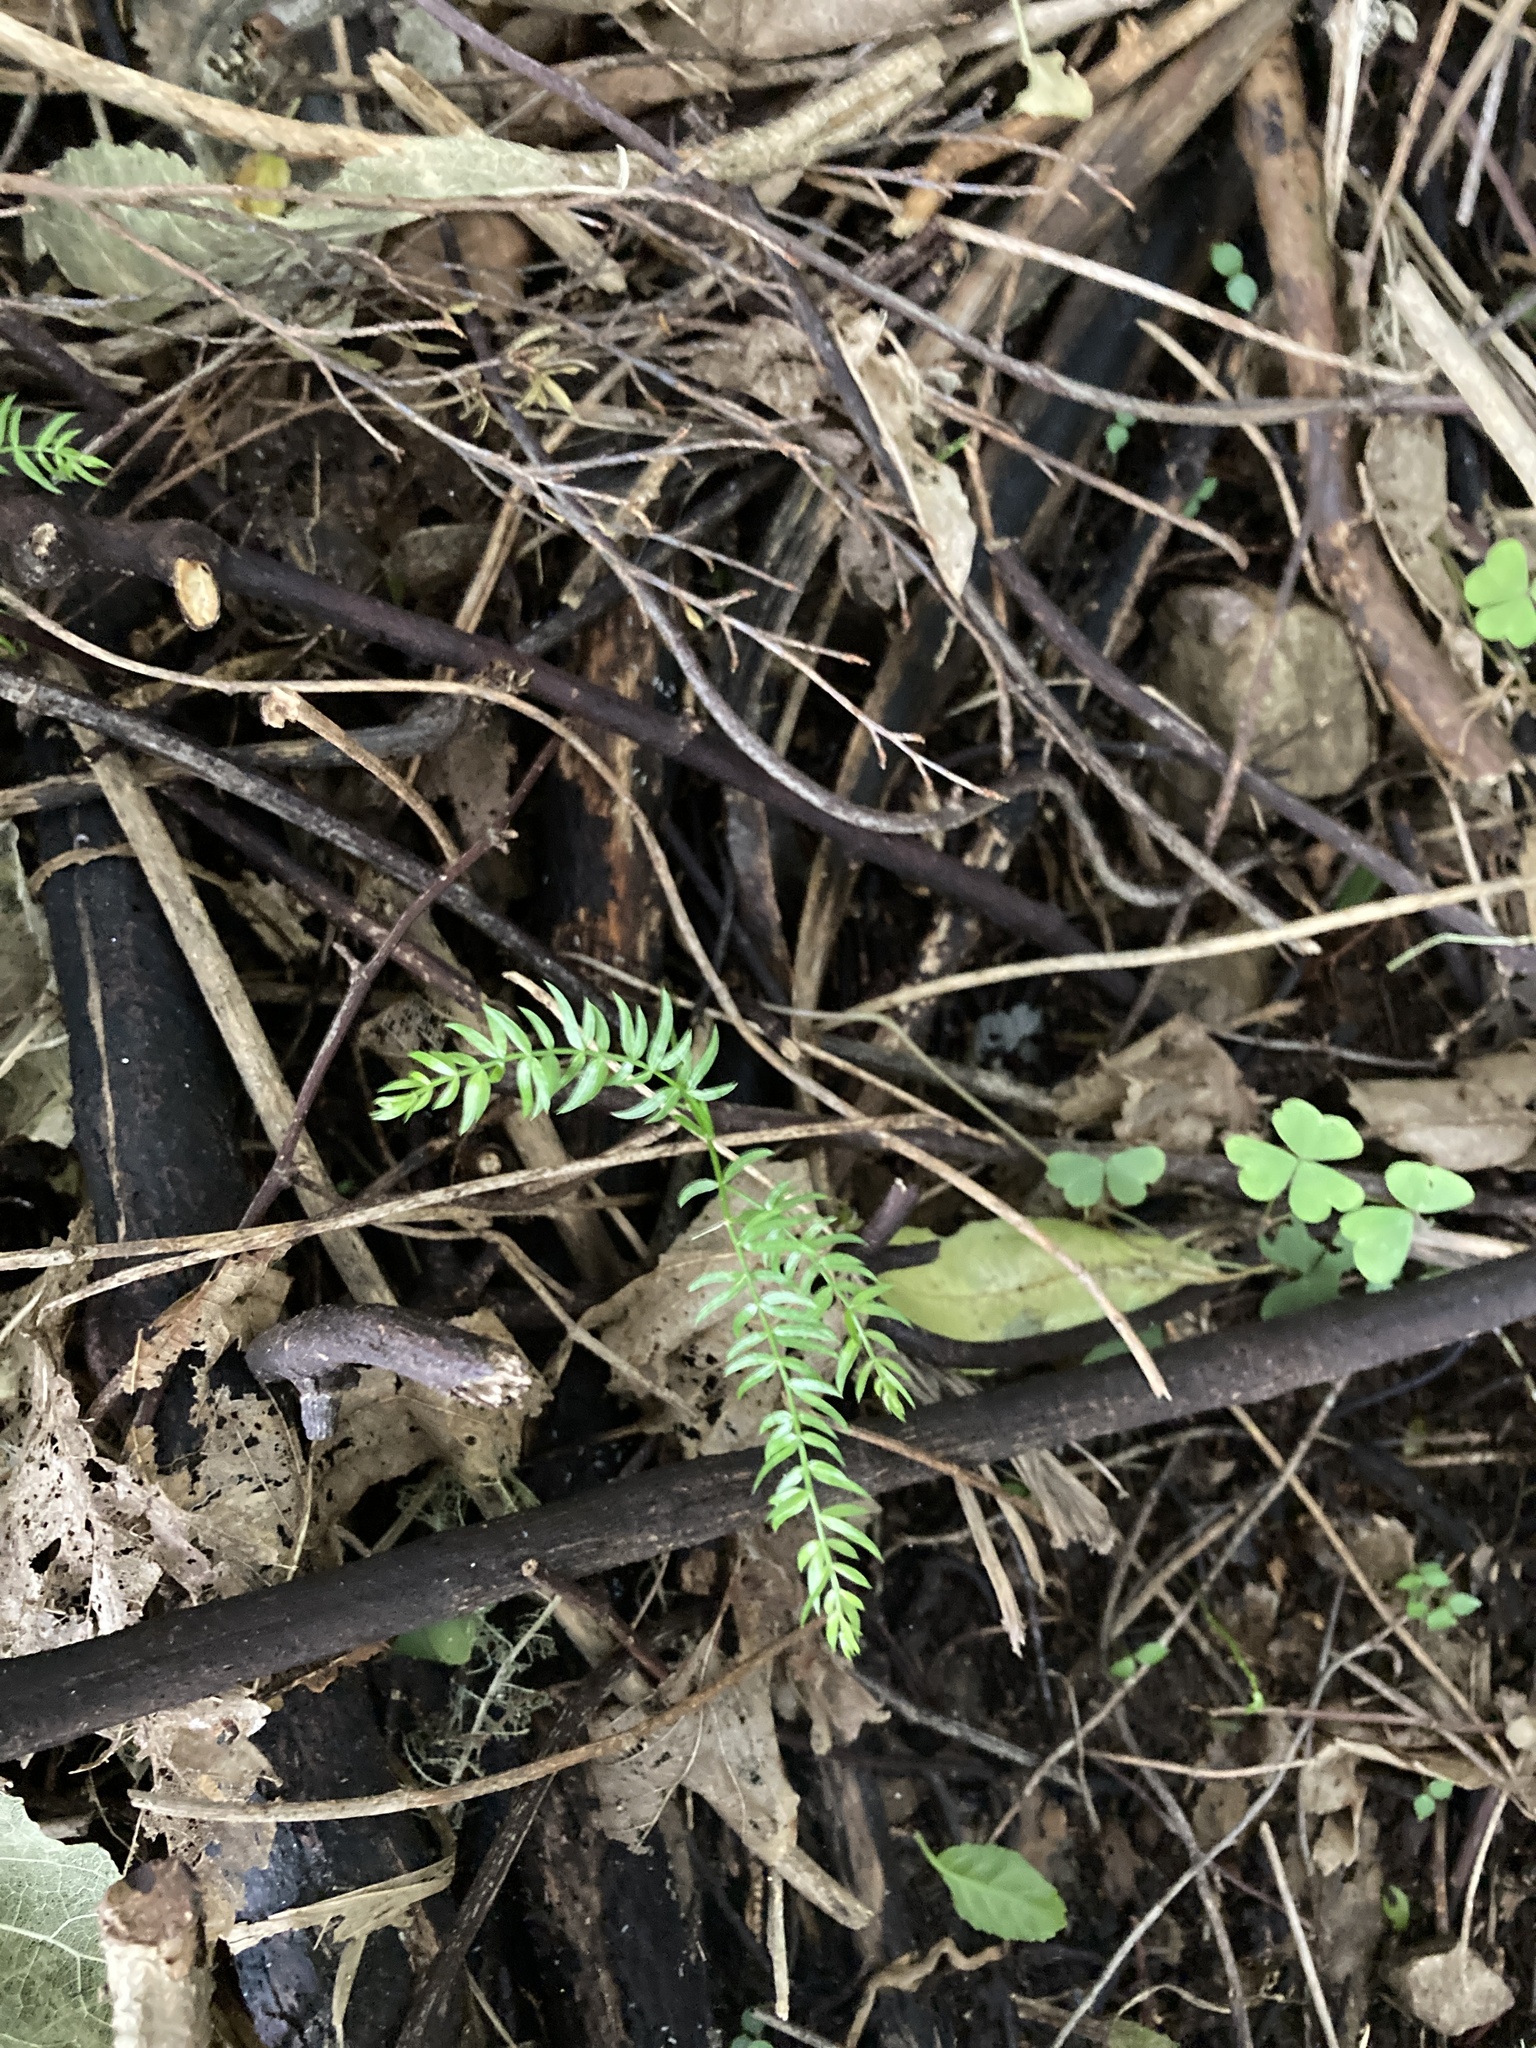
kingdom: Plantae
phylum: Tracheophyta
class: Liliopsida
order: Asparagales
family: Asparagaceae
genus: Asparagus
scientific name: Asparagus scandens
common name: Asparagus-fern
